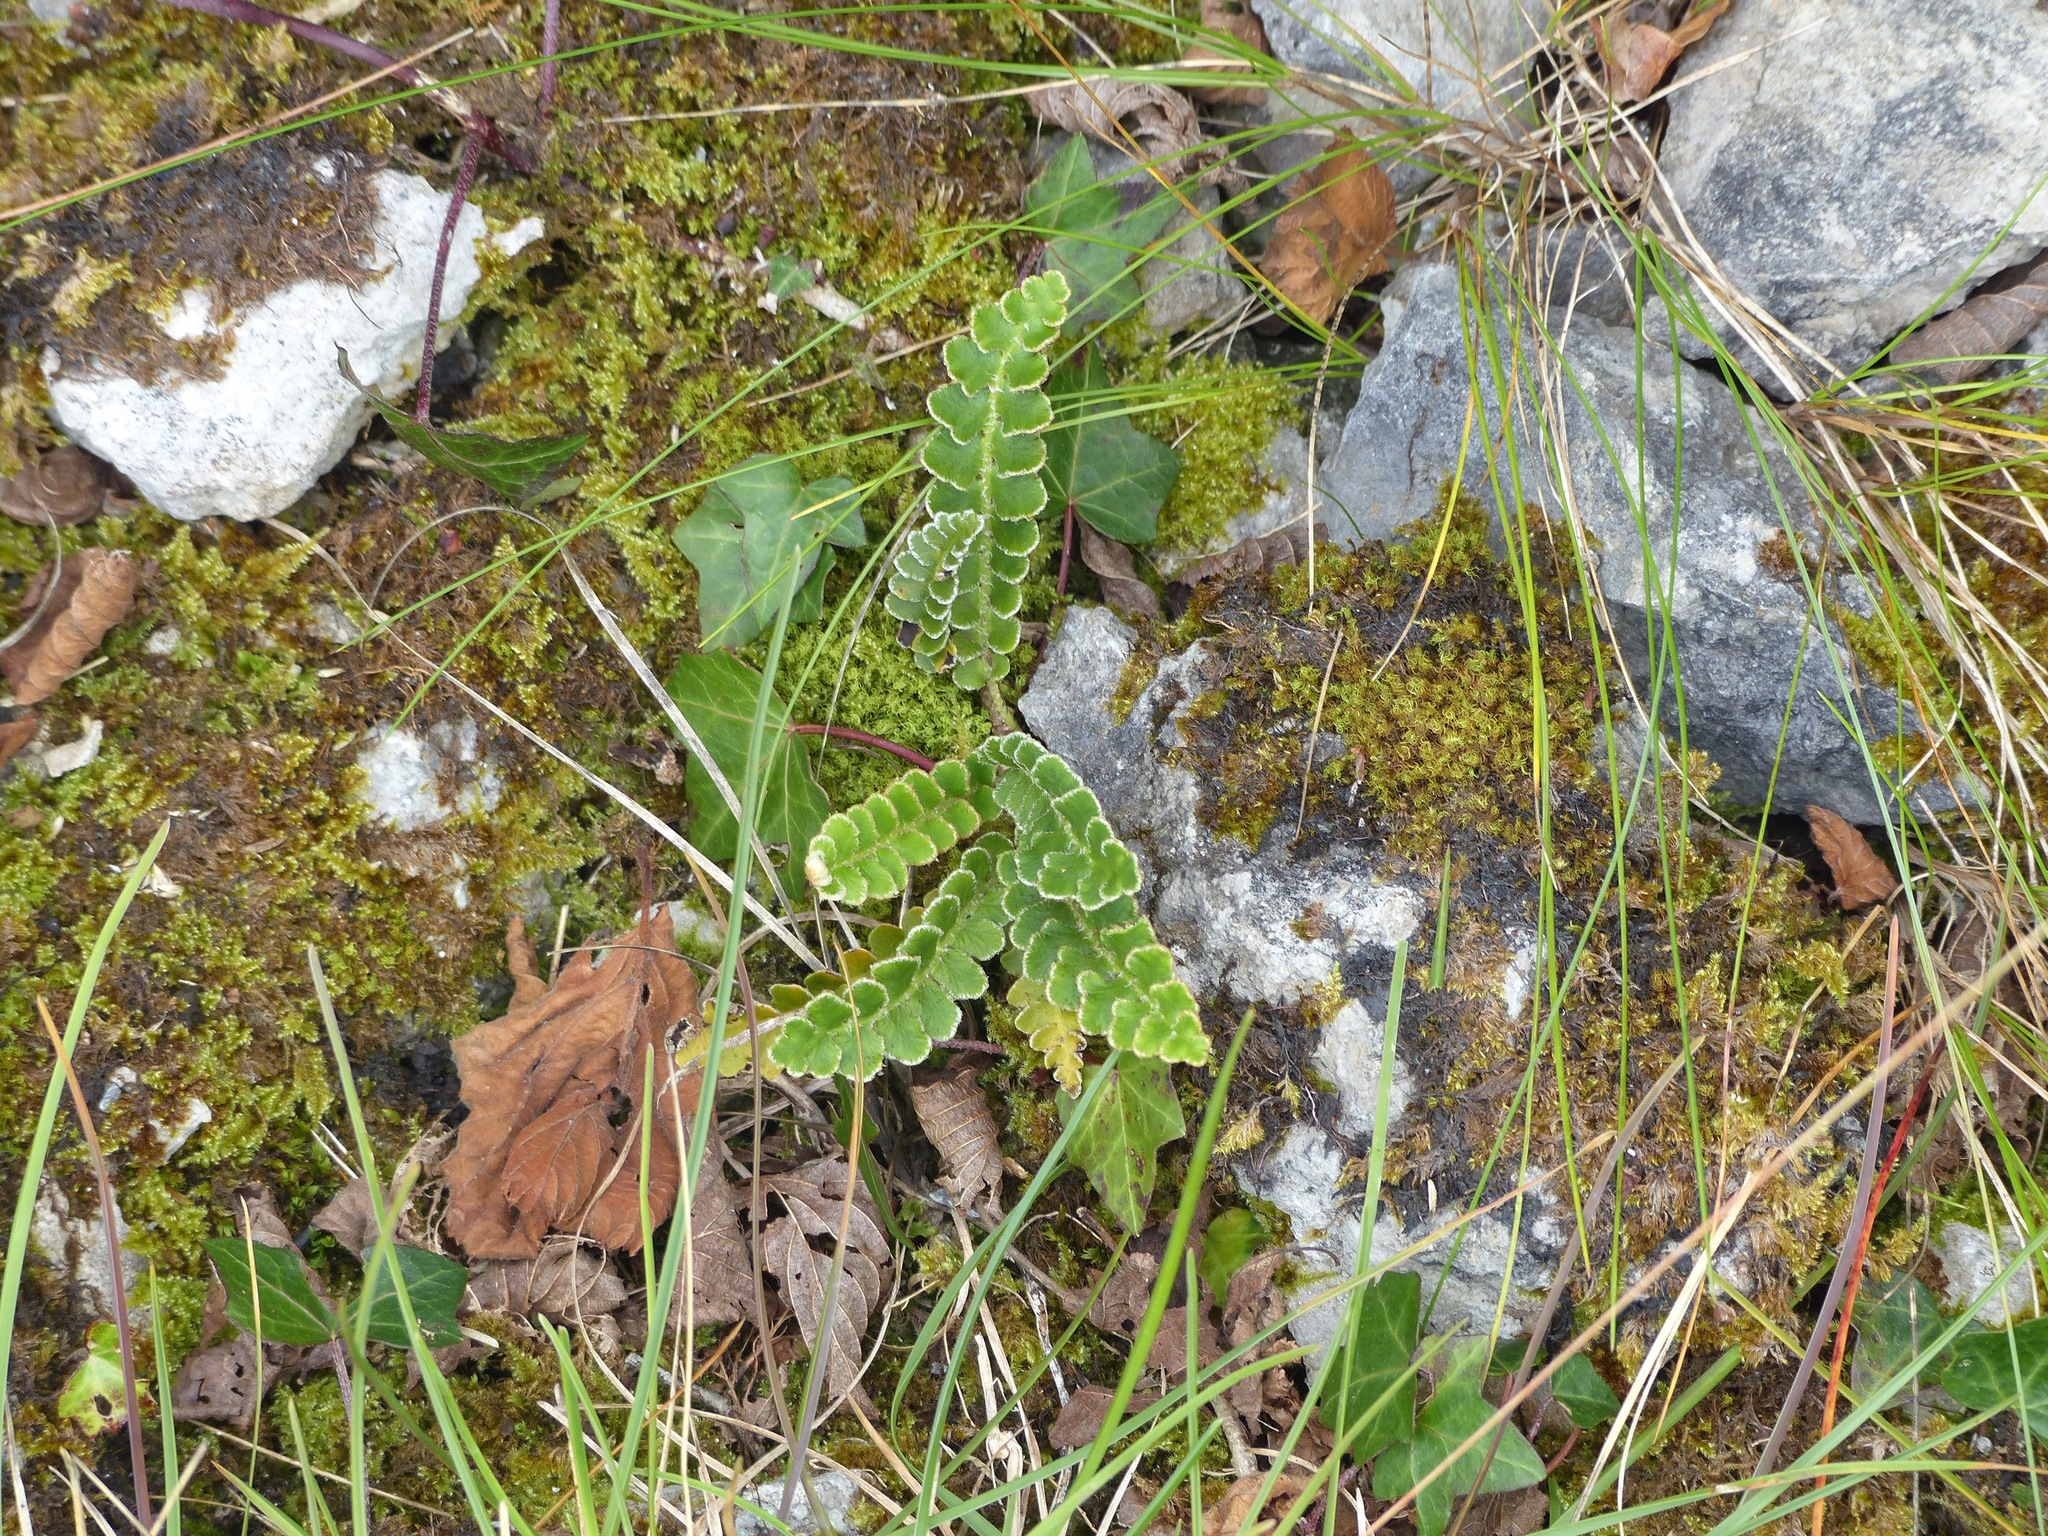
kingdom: Plantae
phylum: Tracheophyta
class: Polypodiopsida
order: Polypodiales
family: Aspleniaceae
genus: Asplenium
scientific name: Asplenium ceterach
